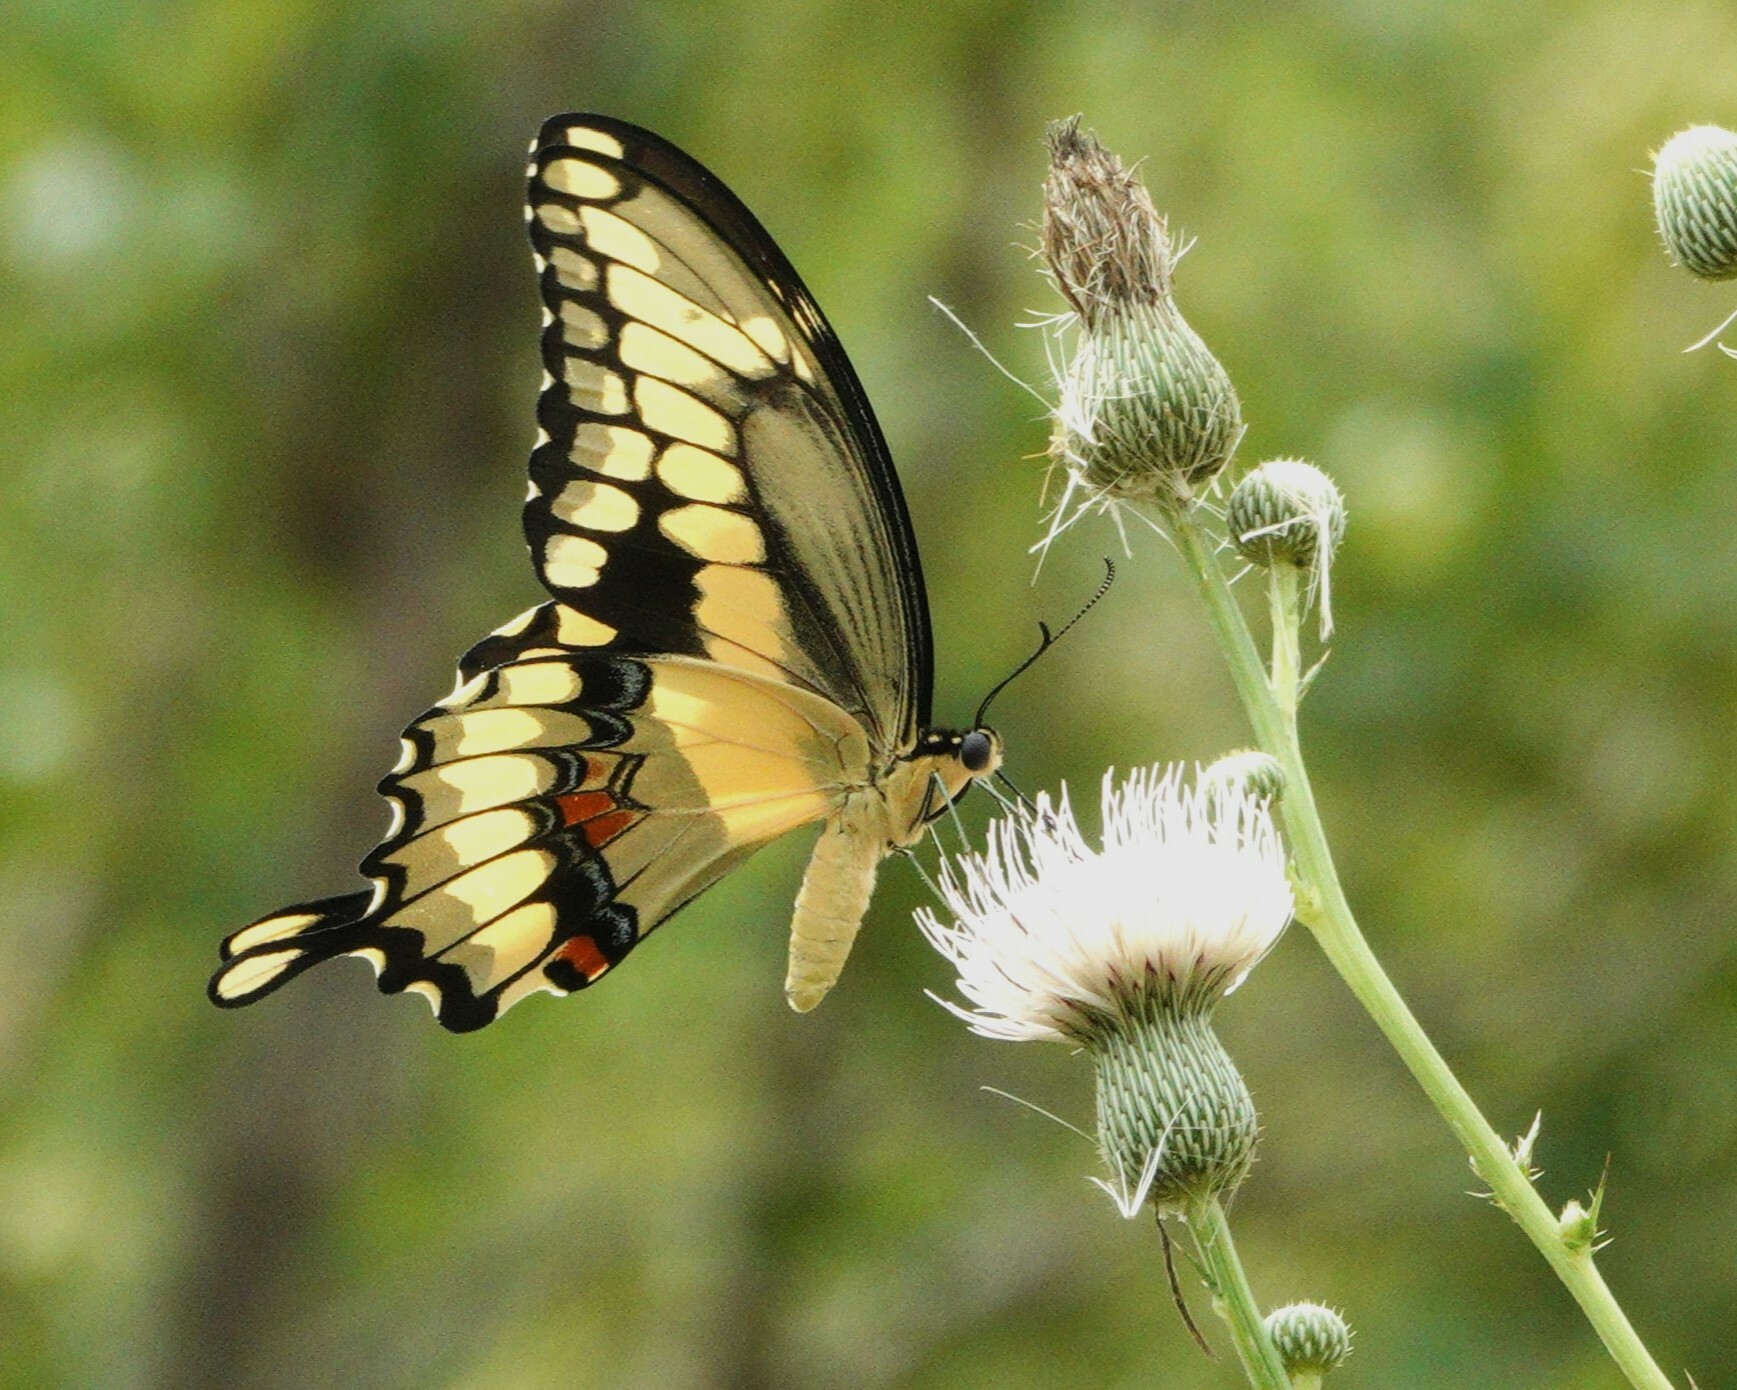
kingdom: Animalia
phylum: Arthropoda
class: Insecta
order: Lepidoptera
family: Papilionidae
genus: Papilio
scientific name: Papilio cresphontes
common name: Giant swallowtail
